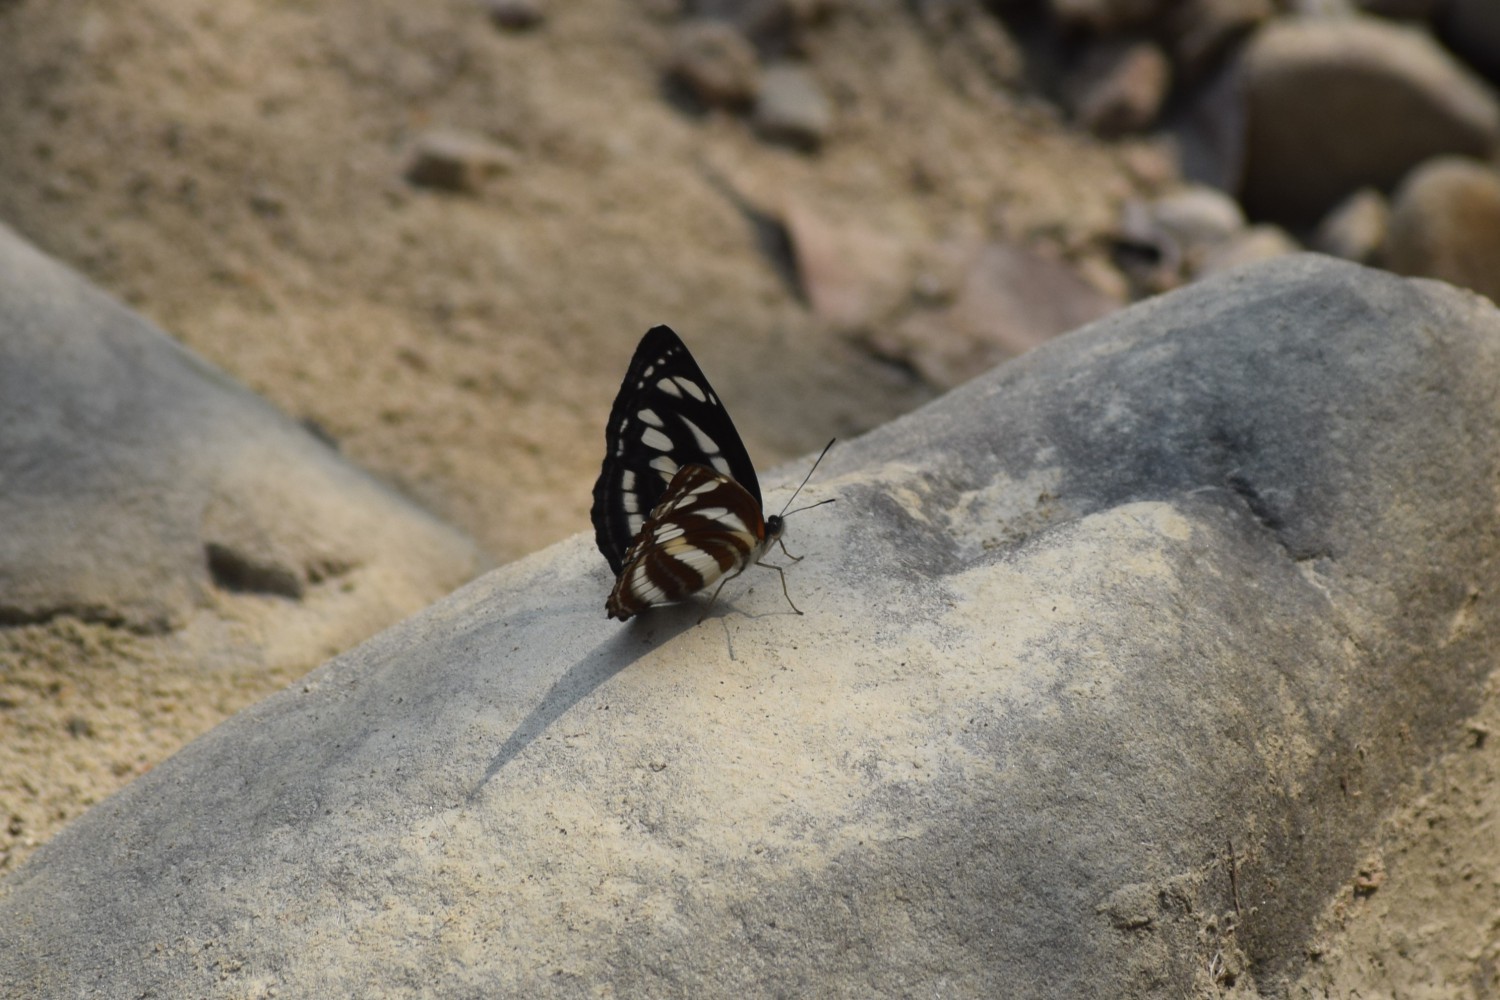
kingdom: Animalia
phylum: Arthropoda
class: Insecta
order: Lepidoptera
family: Nymphalidae
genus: Neptis
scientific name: Neptis sappho
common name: Common glider
